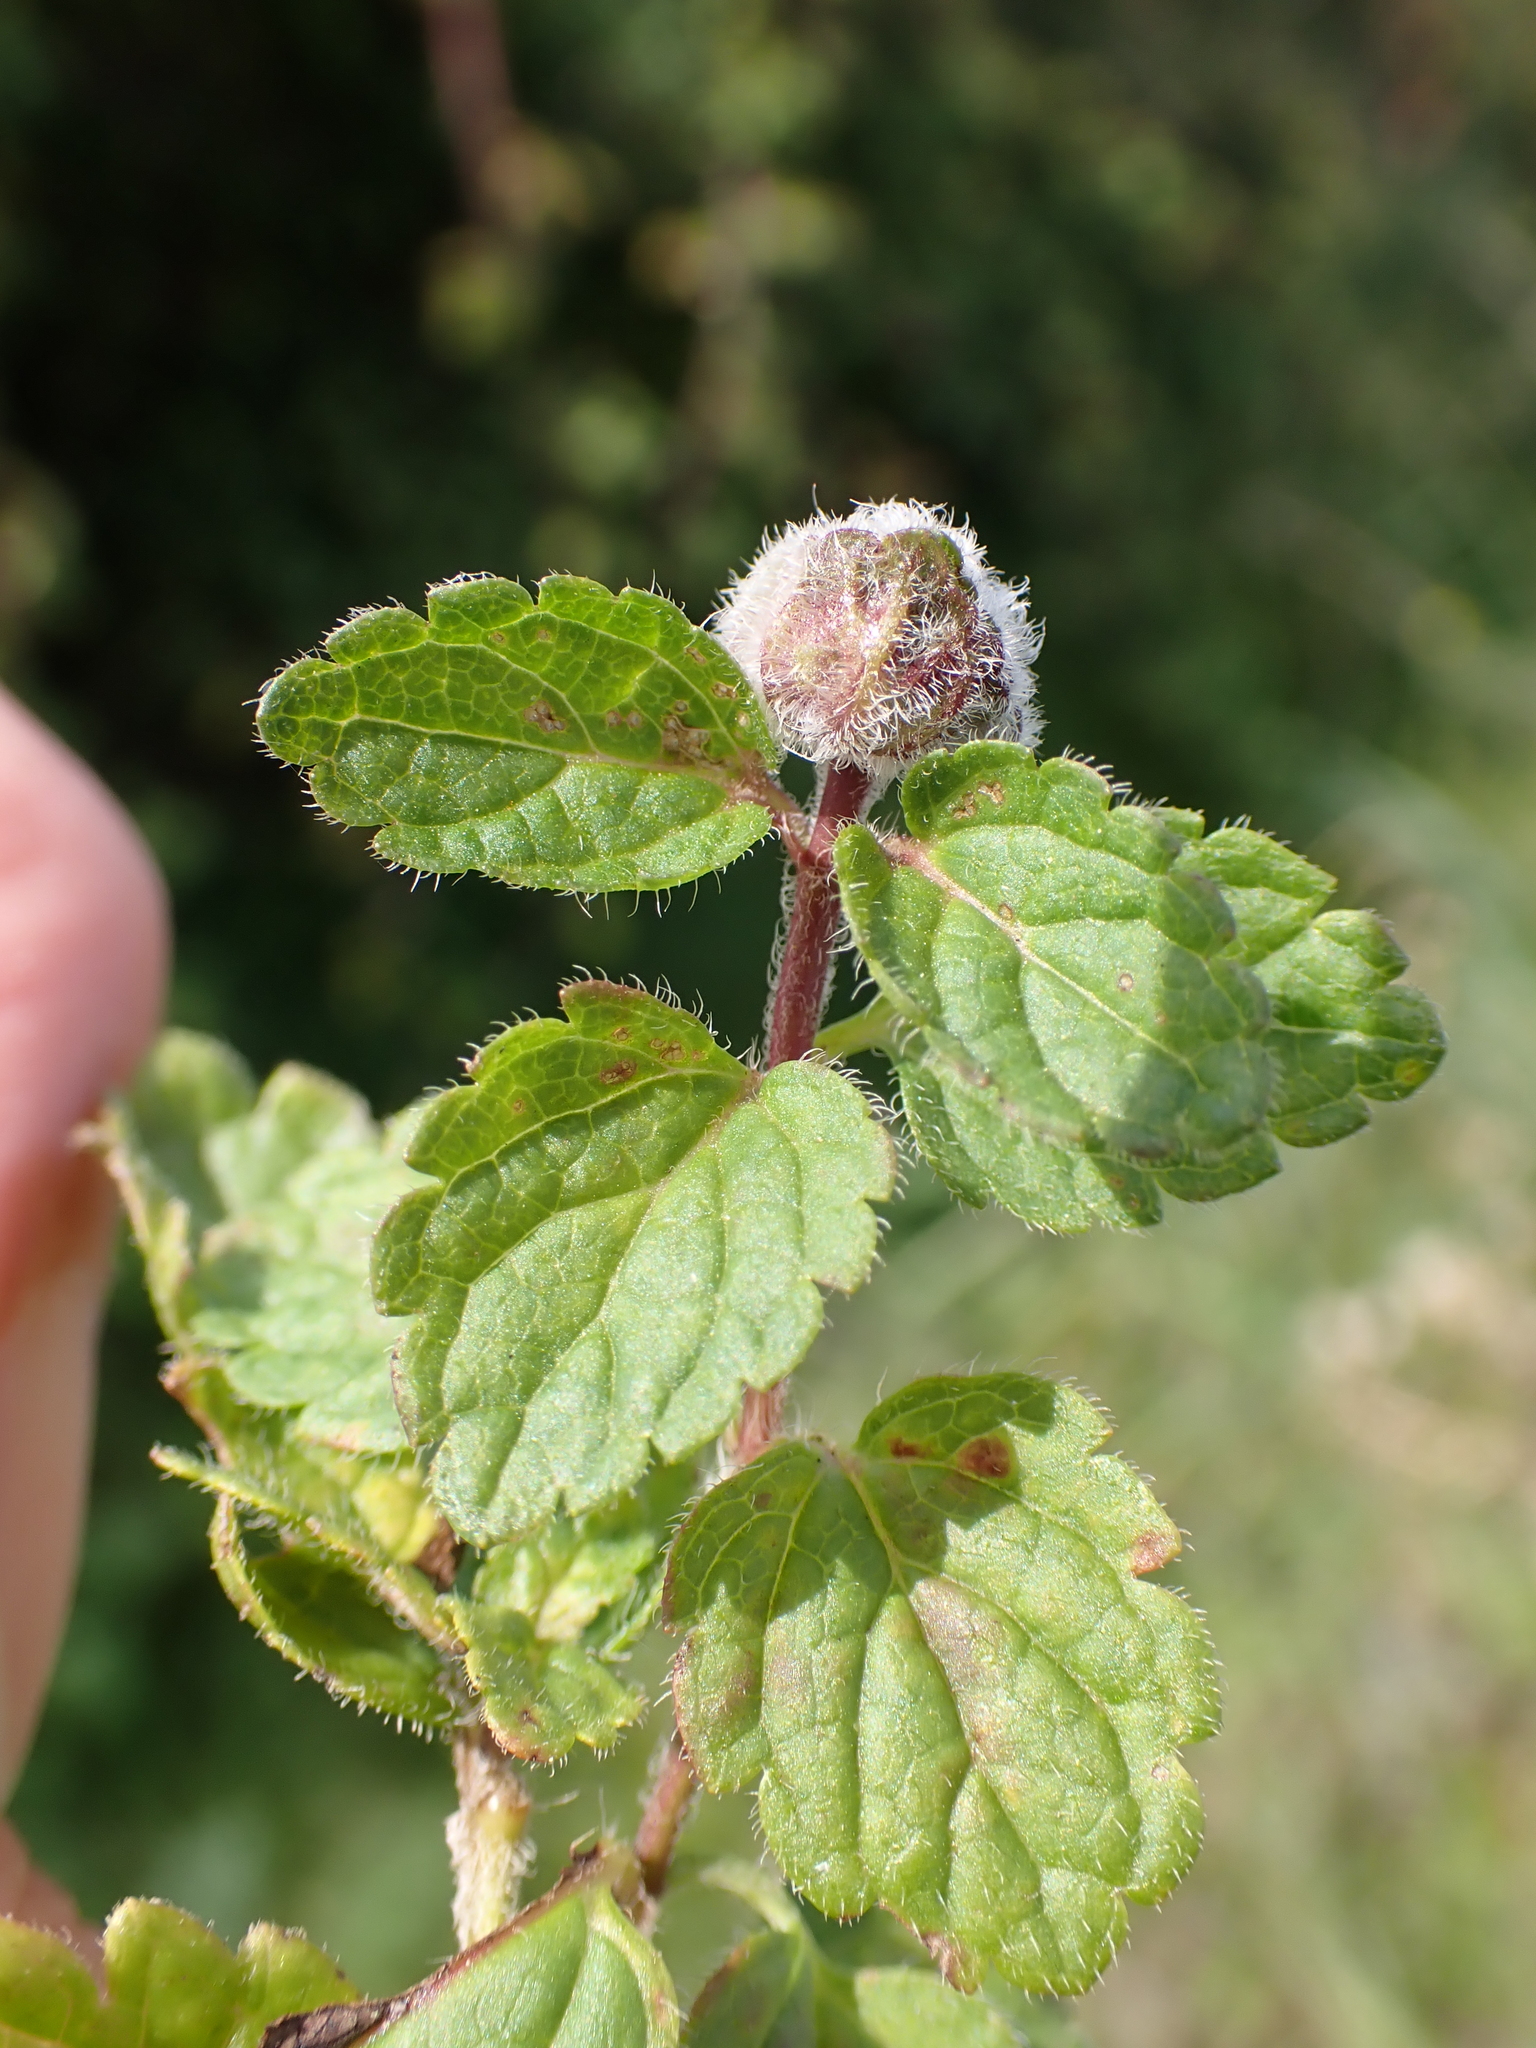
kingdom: Plantae
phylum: Tracheophyta
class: Magnoliopsida
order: Lamiales
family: Plantaginaceae
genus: Veronica
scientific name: Veronica chamaedrys
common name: Germander speedwell
